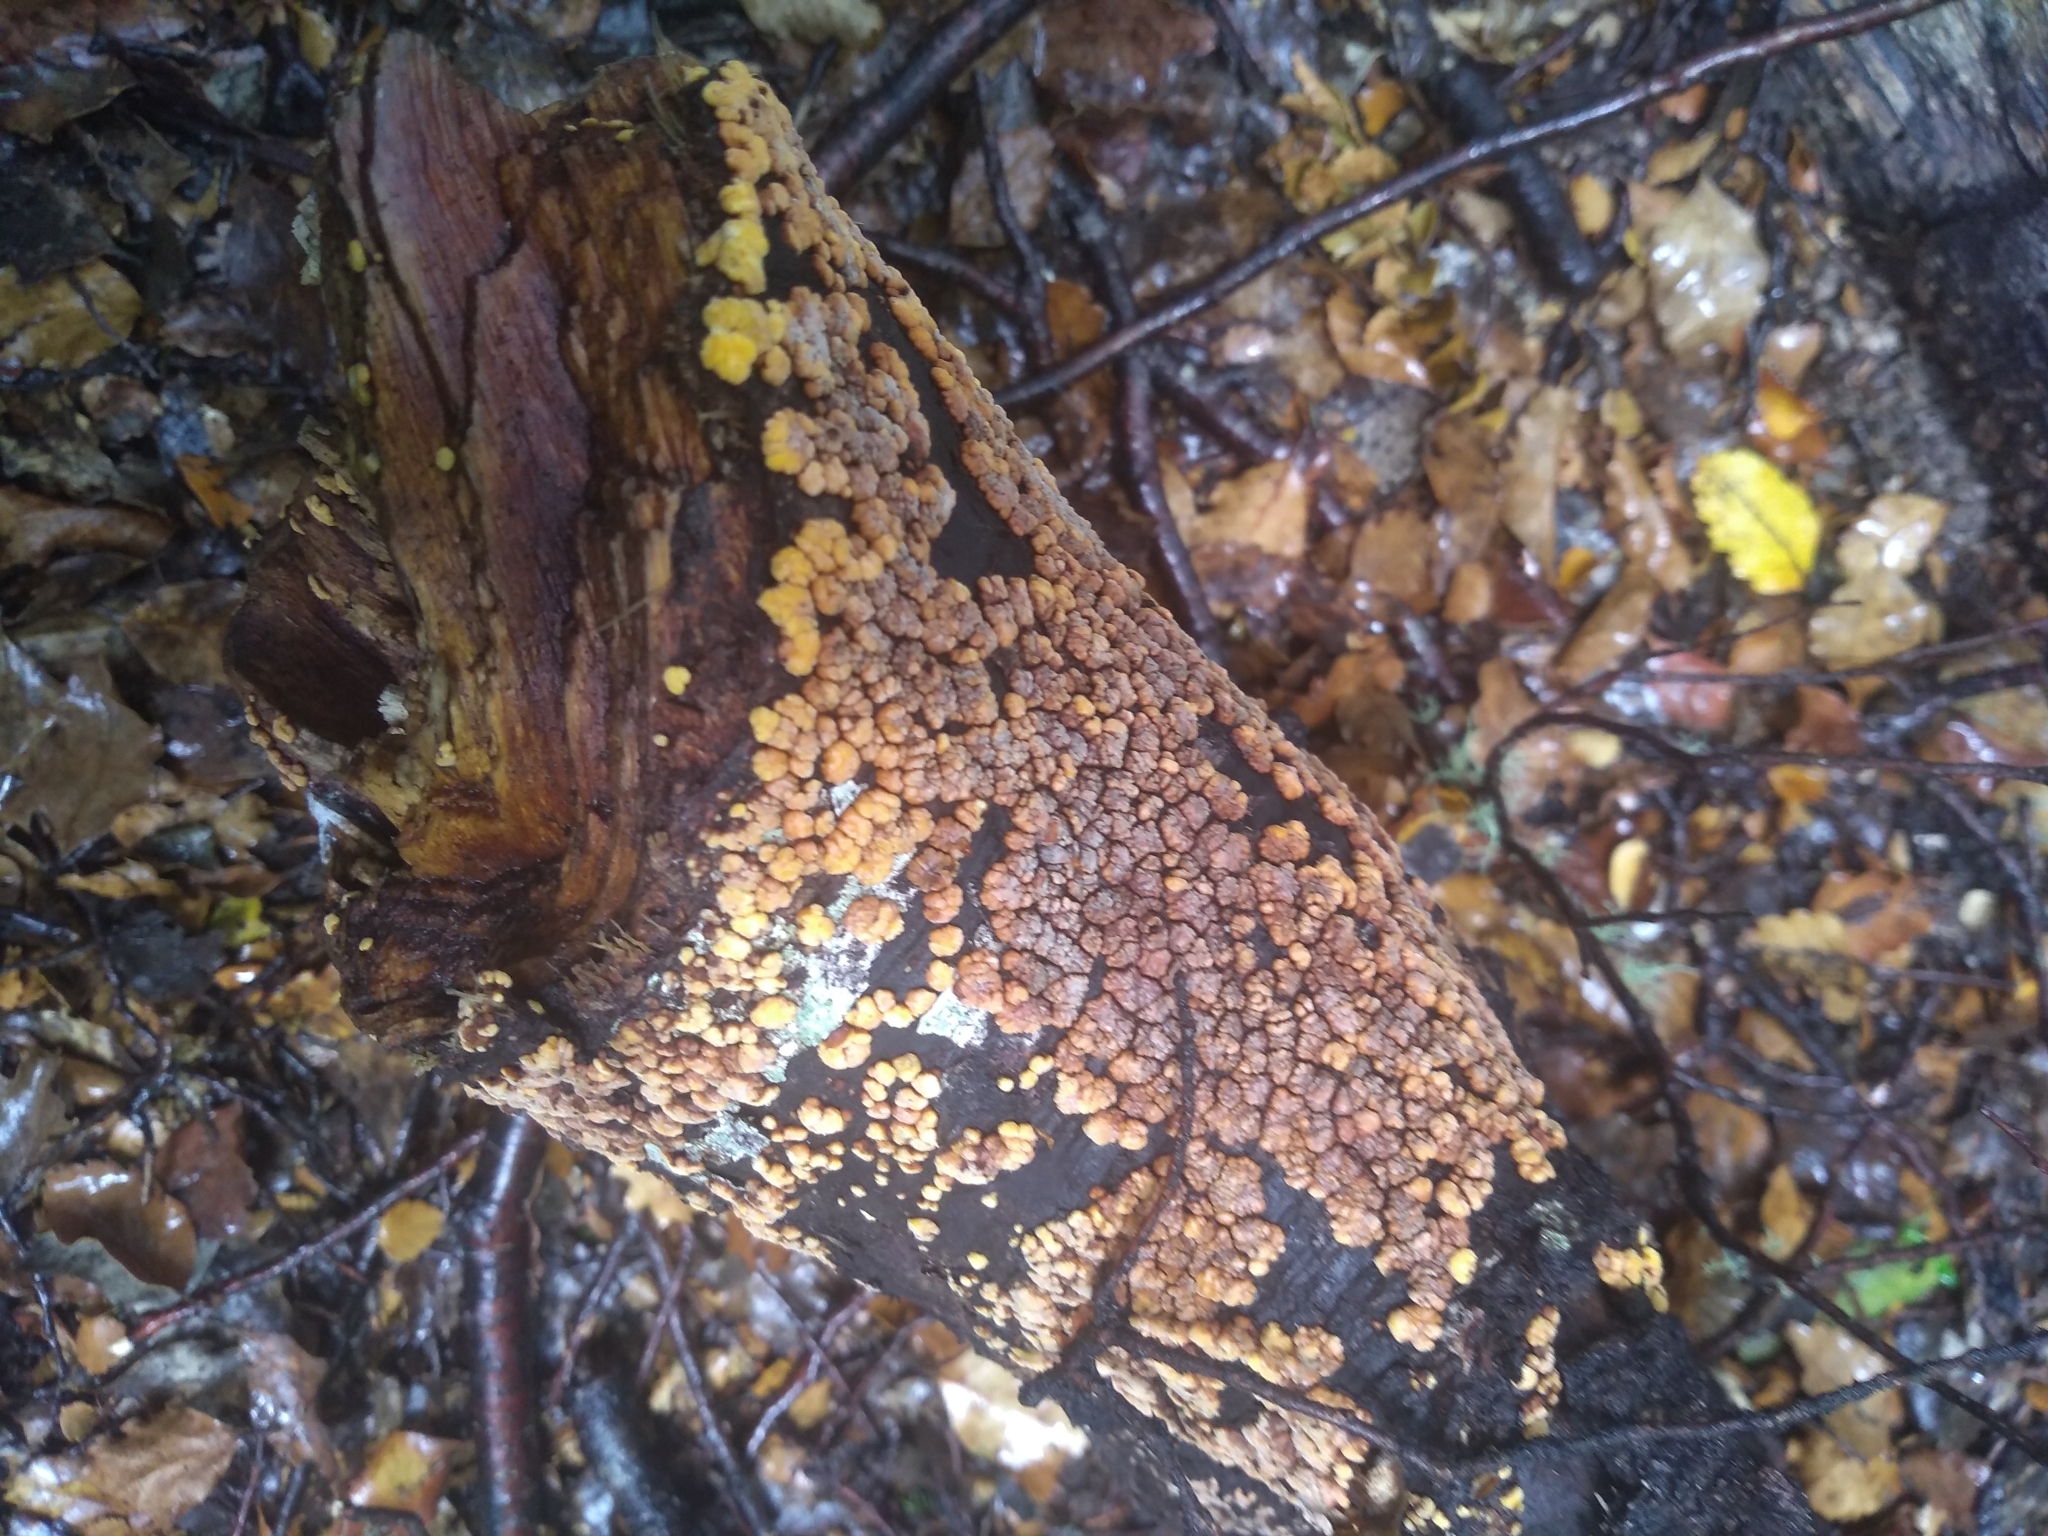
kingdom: Fungi
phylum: Basidiomycota
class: Agaricomycetes
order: Russulales
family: Stereaceae
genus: Aleurodiscus
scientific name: Aleurodiscus berggrenii
